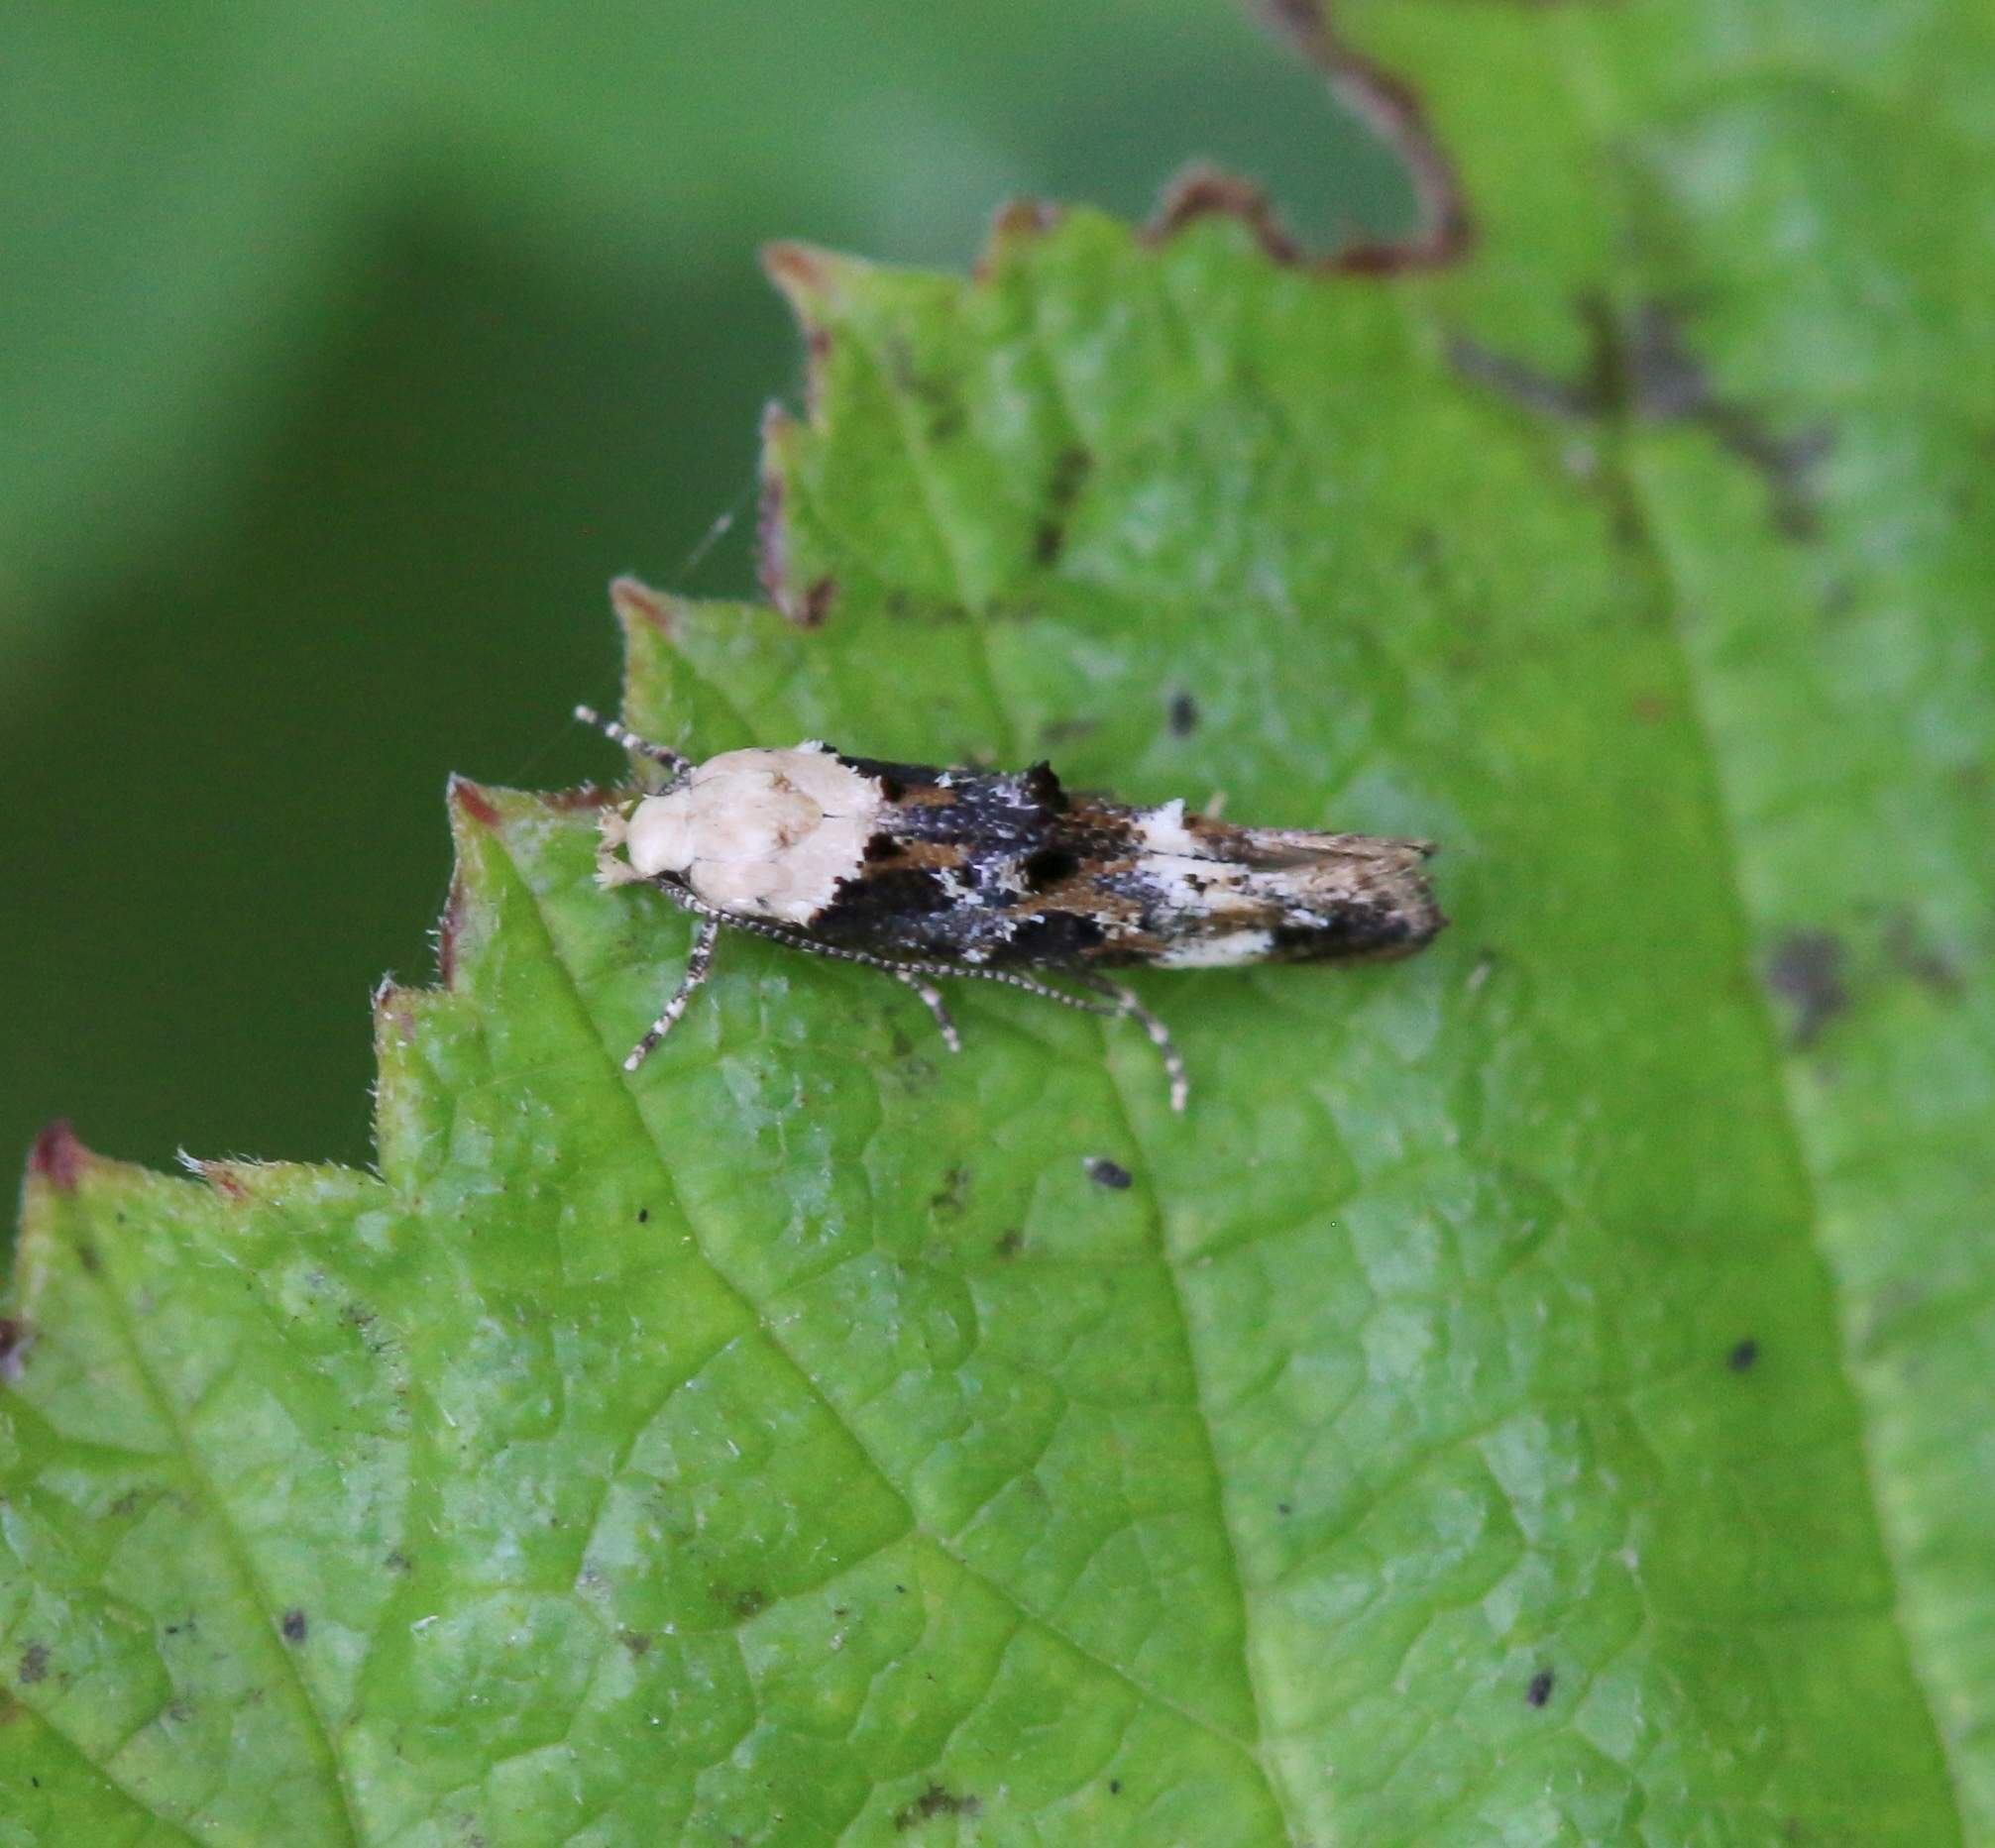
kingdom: Animalia
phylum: Arthropoda
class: Insecta
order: Lepidoptera
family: Momphidae
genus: Mompha
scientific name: Mompha propinquella
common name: Marbled cosmet
